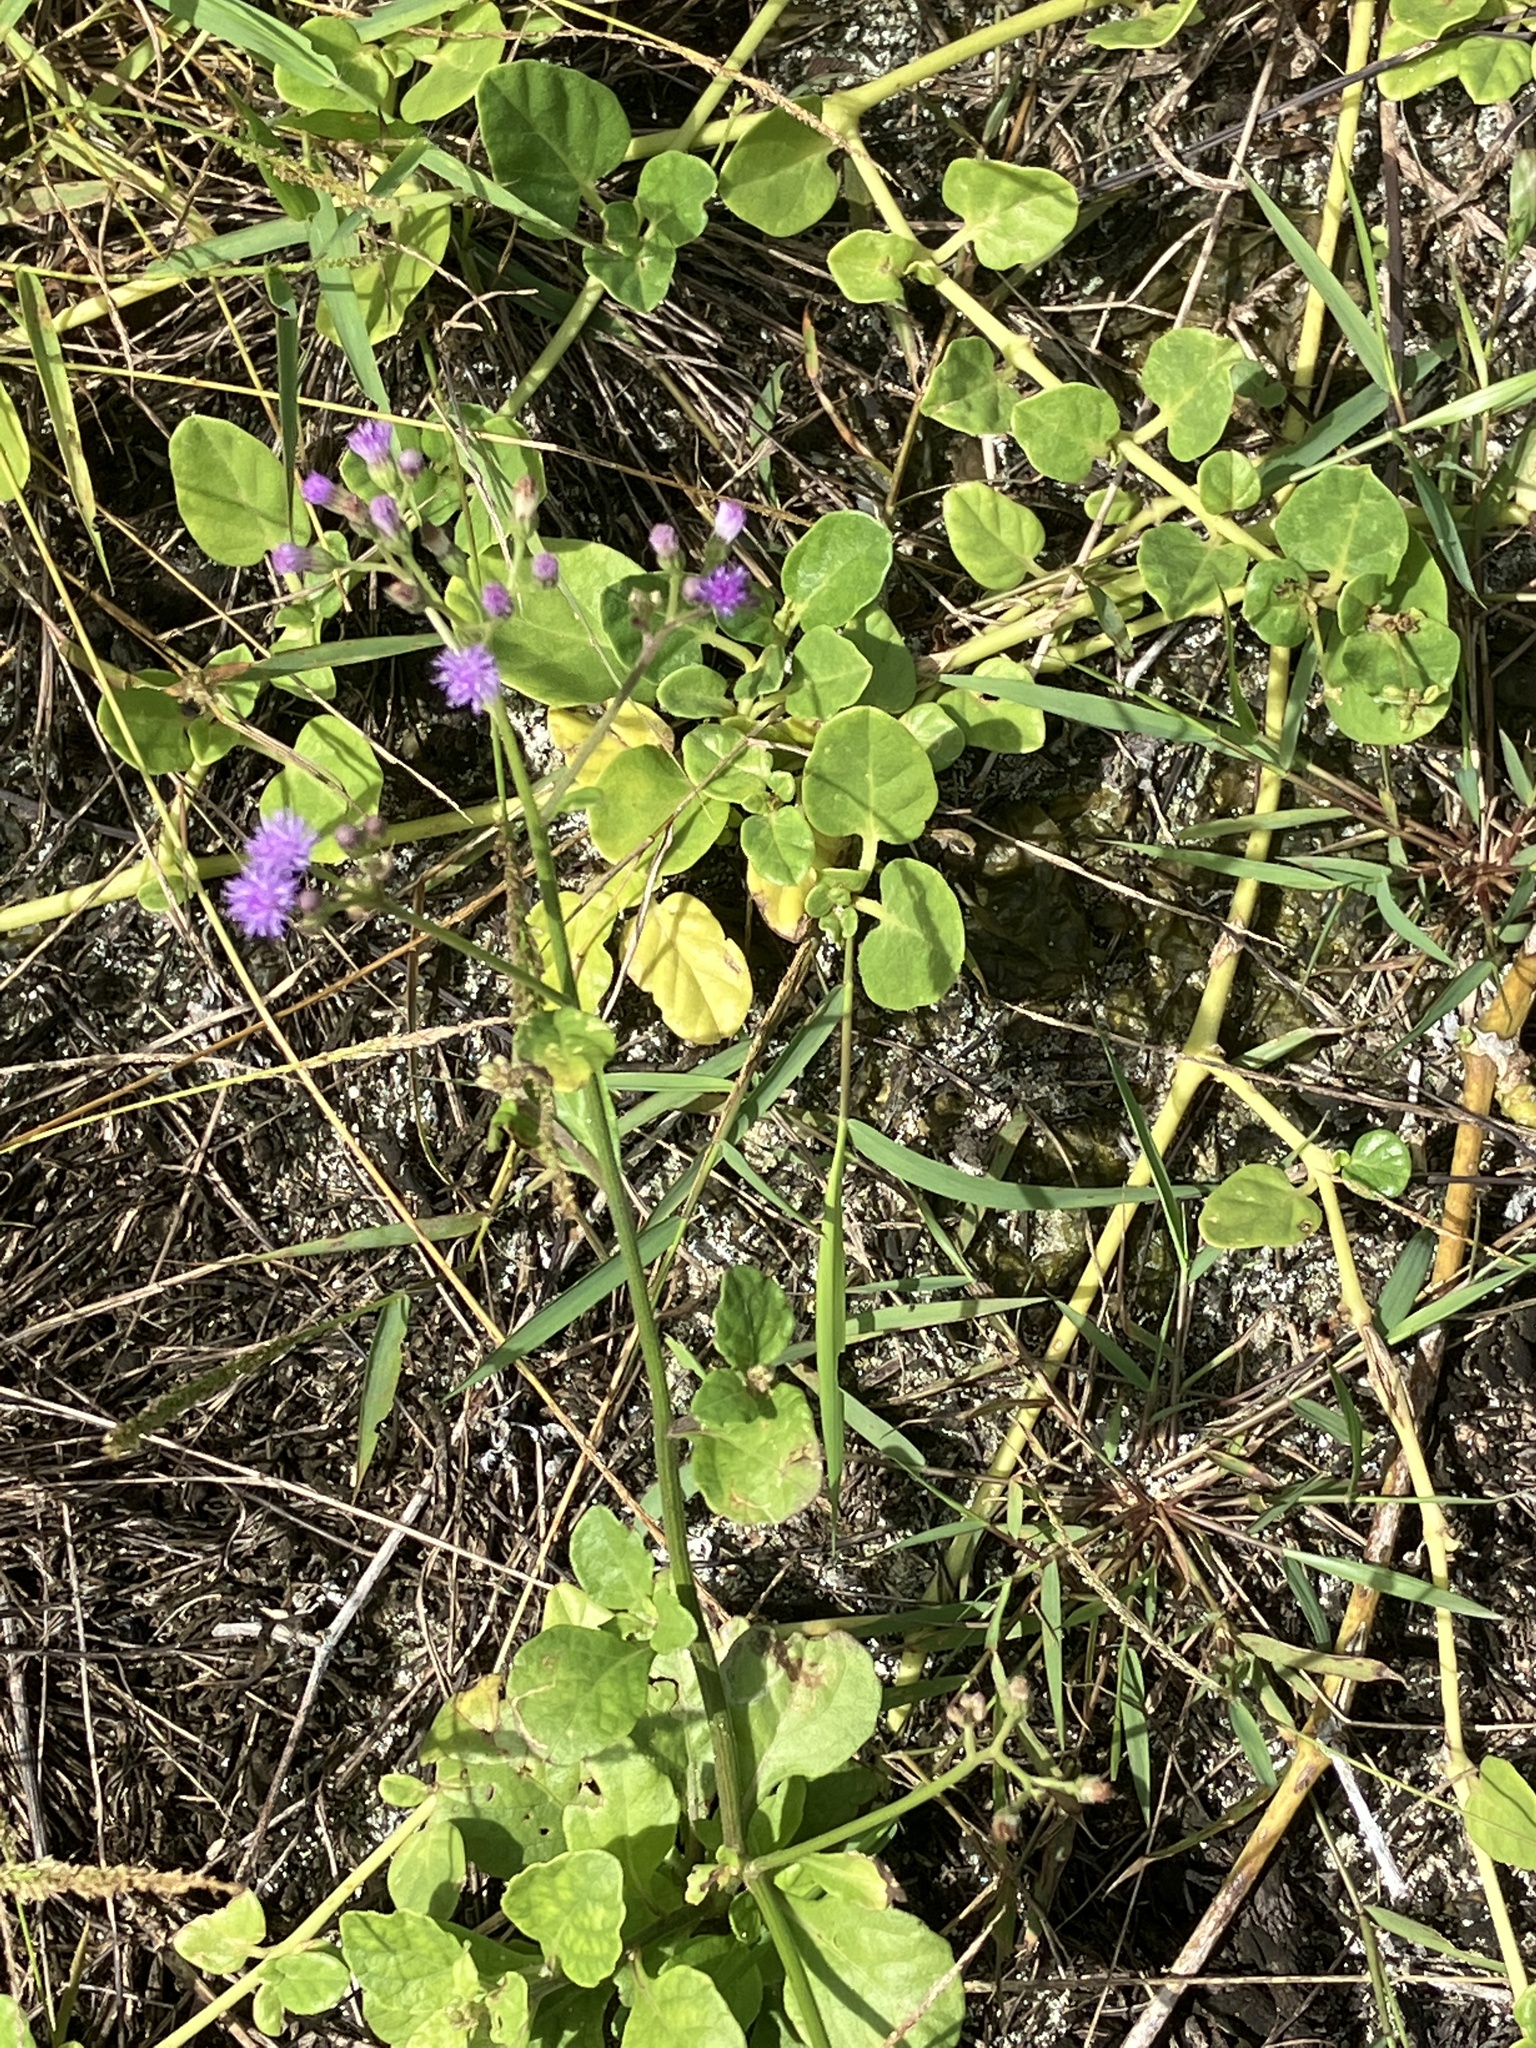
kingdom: Plantae
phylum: Tracheophyta
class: Magnoliopsida
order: Asterales
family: Asteraceae
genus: Cyanthillium
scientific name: Cyanthillium cinereum
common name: Little ironweed
